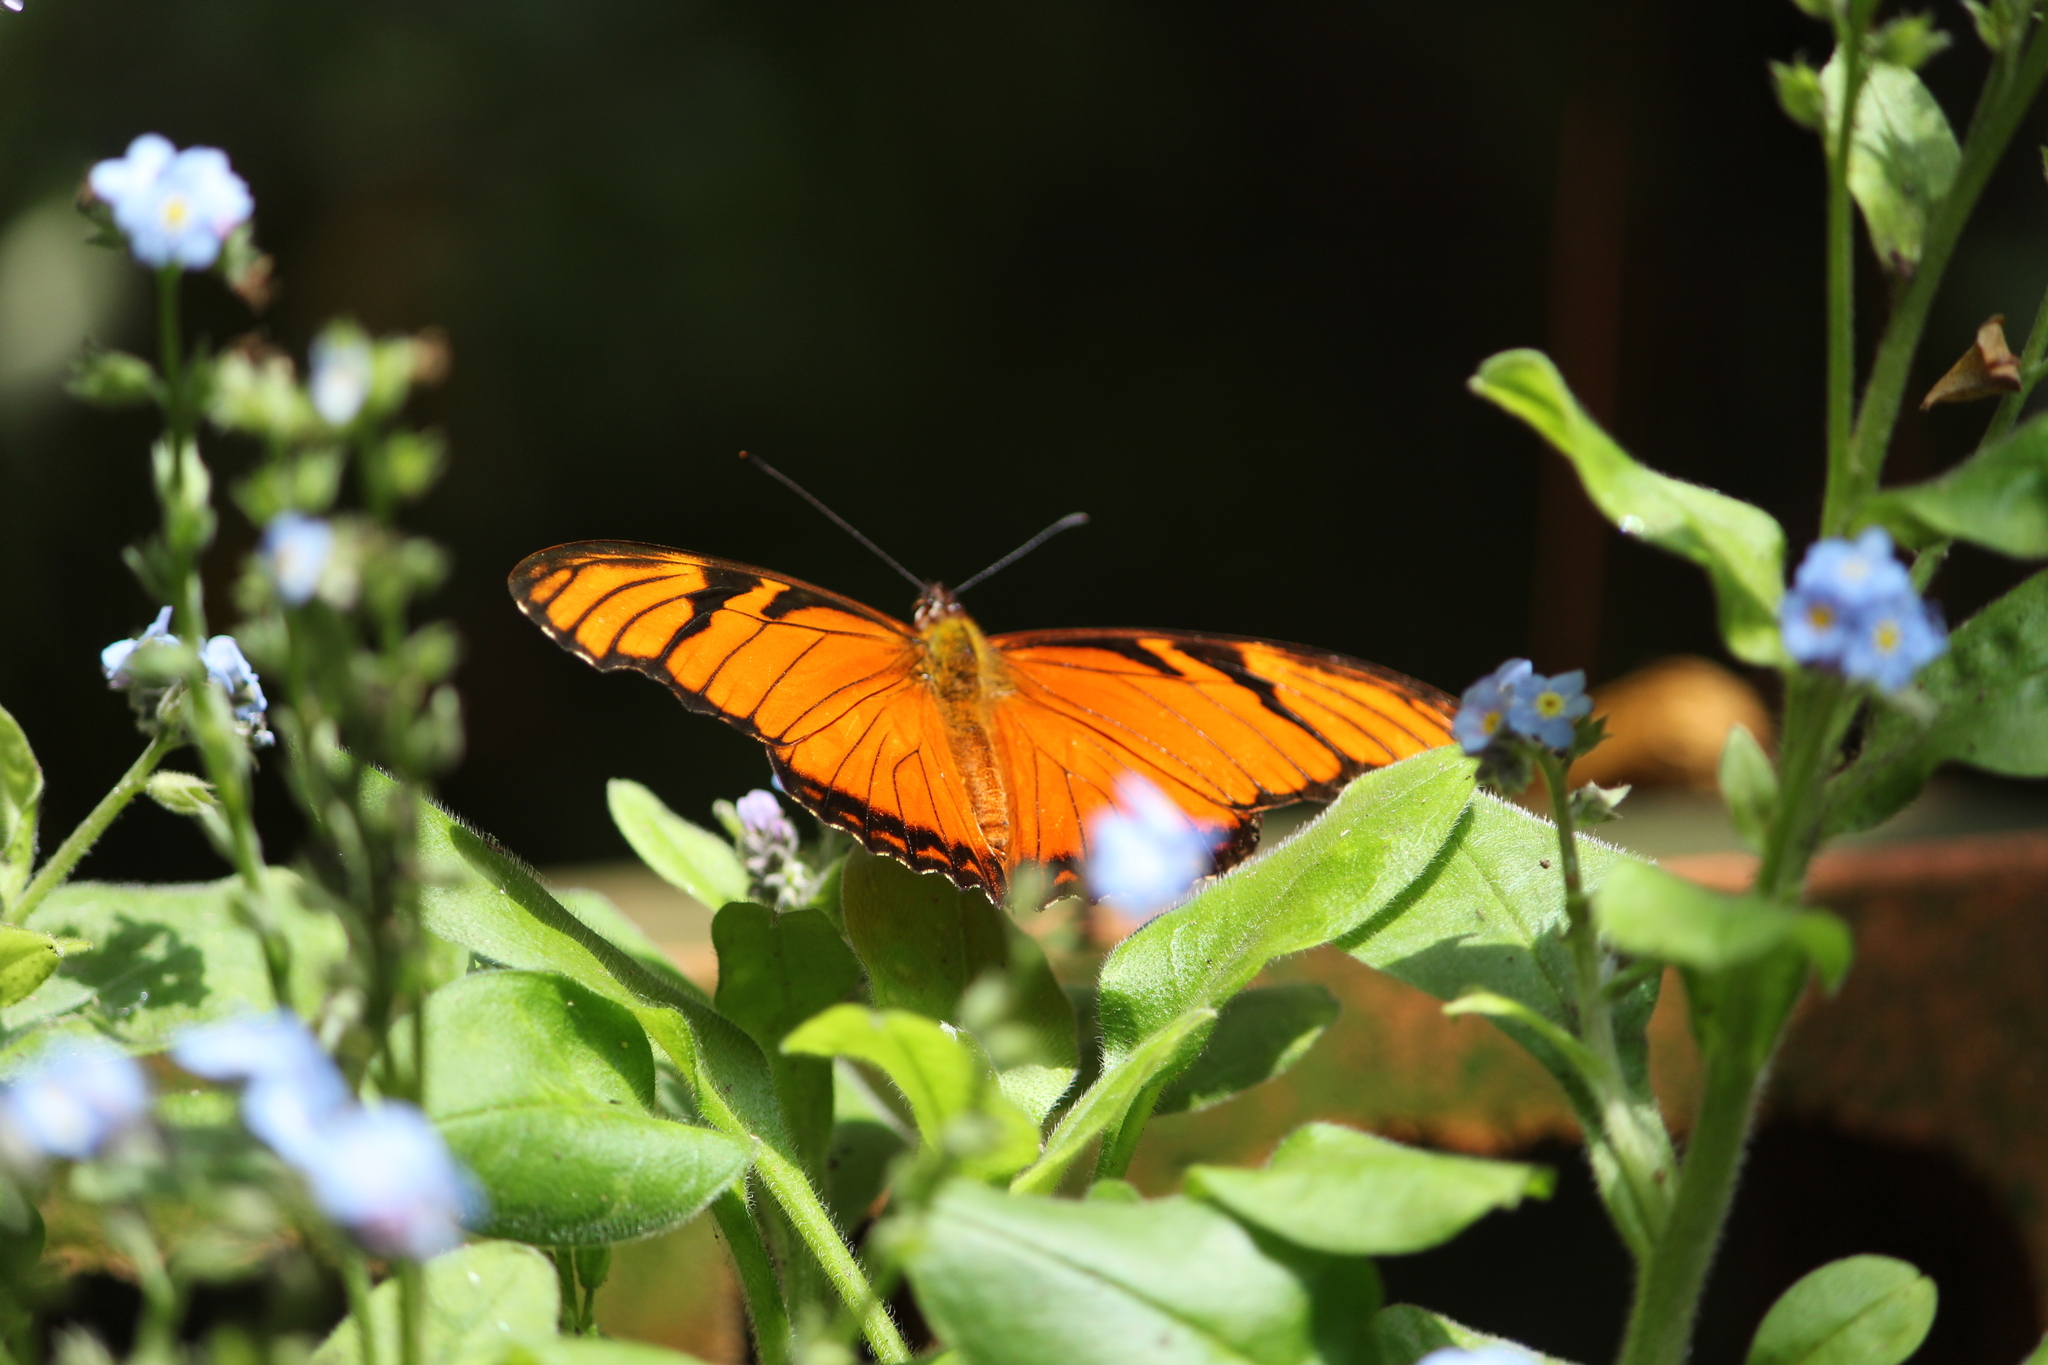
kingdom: Animalia
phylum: Arthropoda
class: Insecta
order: Lepidoptera
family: Nymphalidae
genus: Dione
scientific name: Dione juno
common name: Juno silverspot
